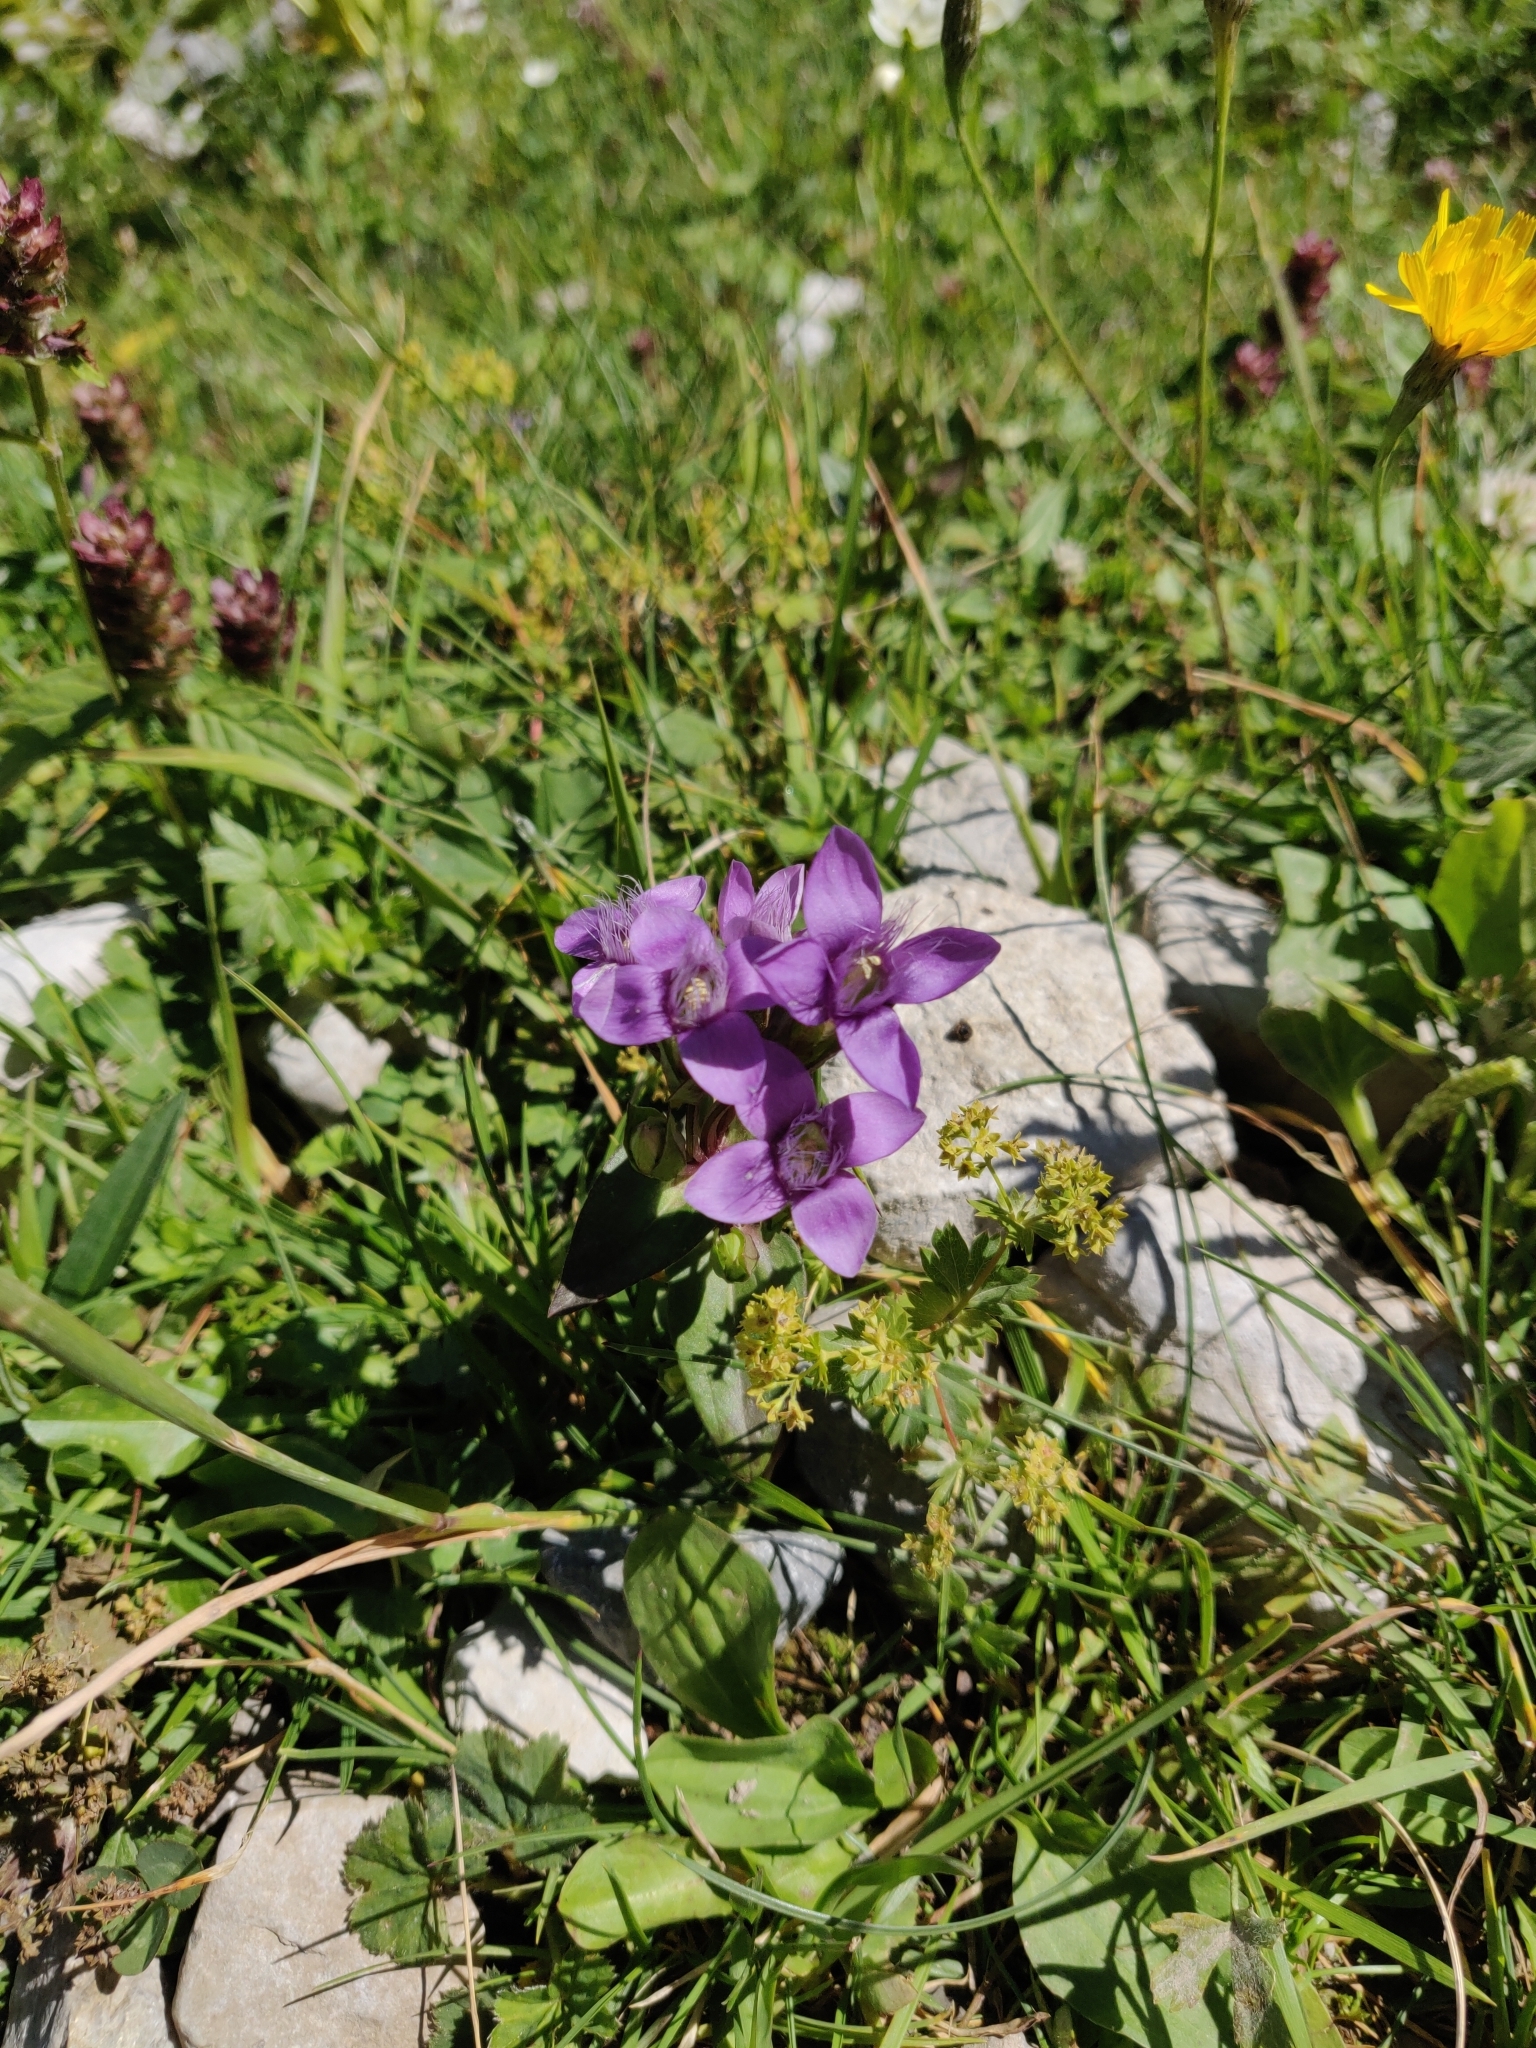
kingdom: Plantae
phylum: Tracheophyta
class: Magnoliopsida
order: Gentianales
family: Gentianaceae
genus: Gentianella
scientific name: Gentianella campestris
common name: Field gentian
